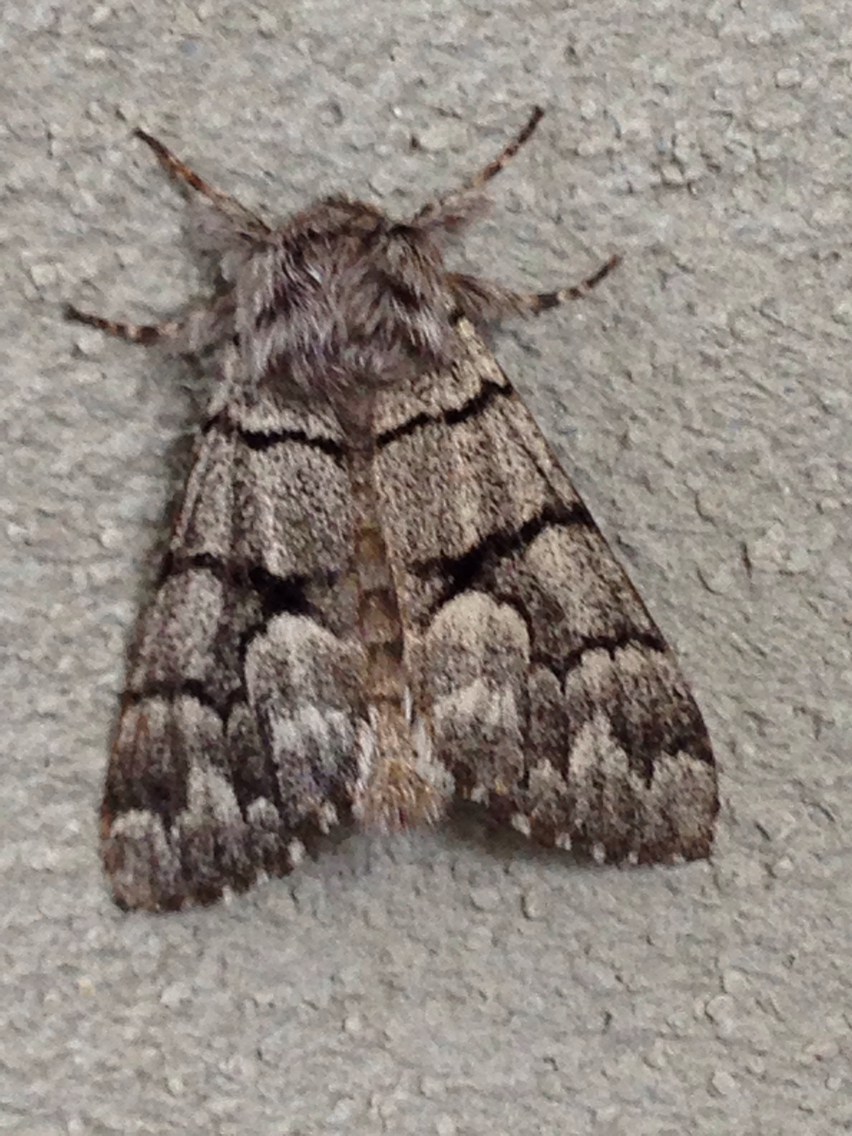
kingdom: Animalia
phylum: Arthropoda
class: Insecta
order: Lepidoptera
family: Noctuidae
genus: Panthea
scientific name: Panthea furcilla
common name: Eastern panthea moth
